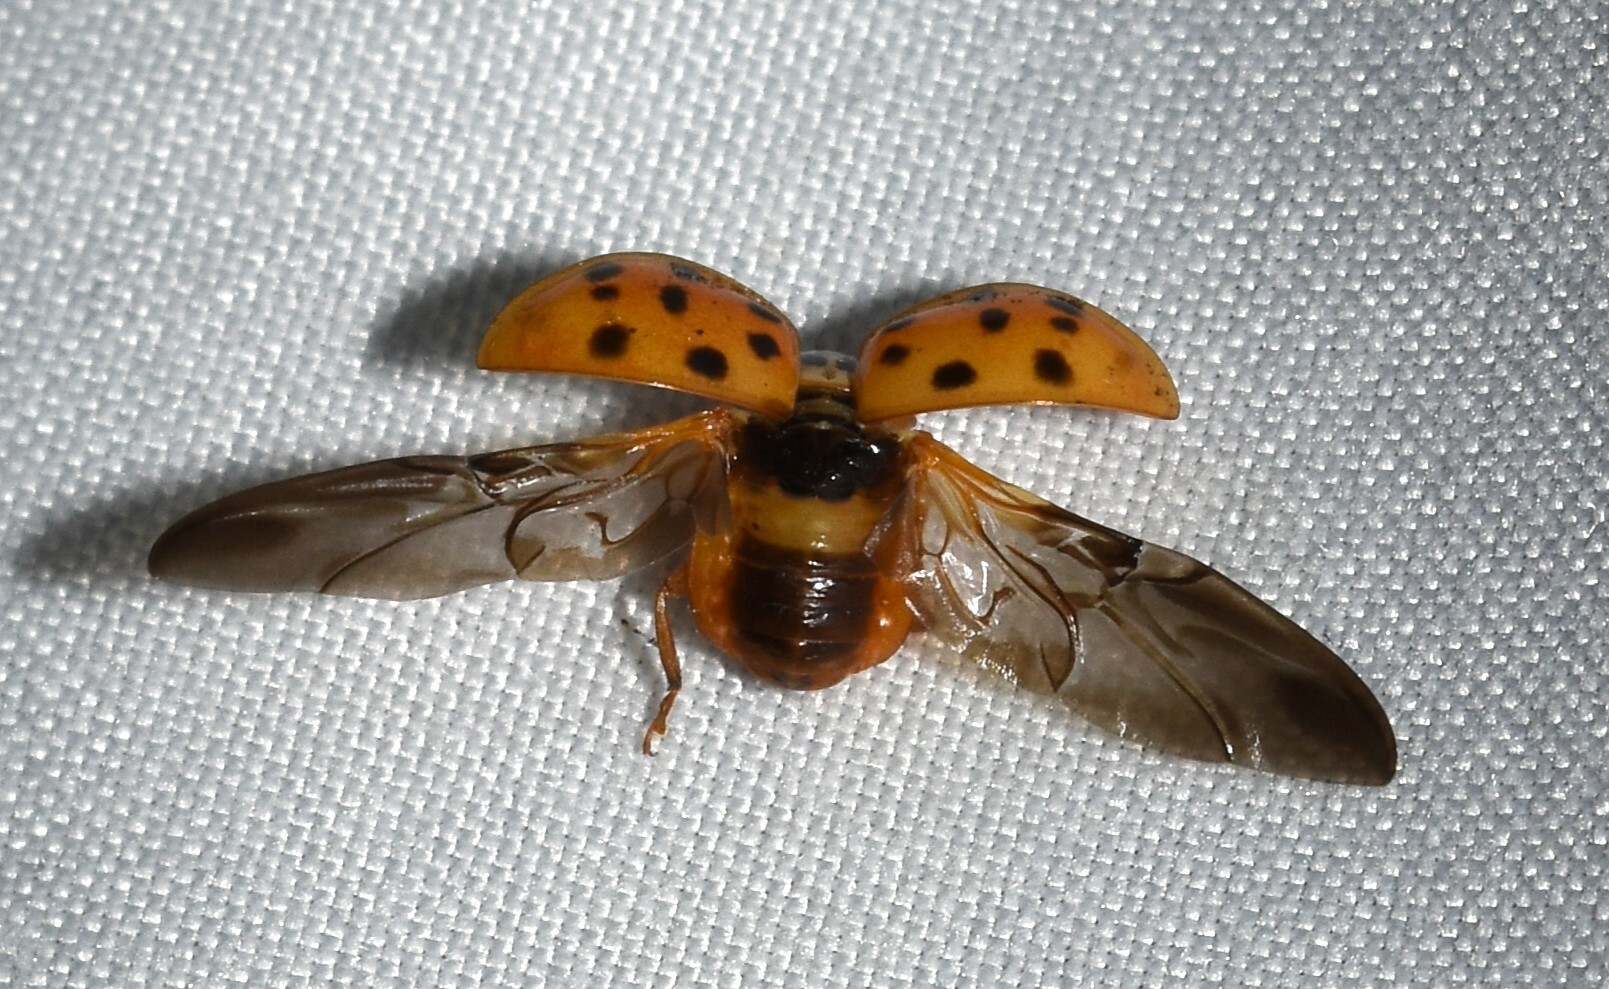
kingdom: Animalia
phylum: Arthropoda
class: Insecta
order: Coleoptera
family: Coccinellidae
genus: Harmonia
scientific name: Harmonia axyridis
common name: Harlequin ladybird
